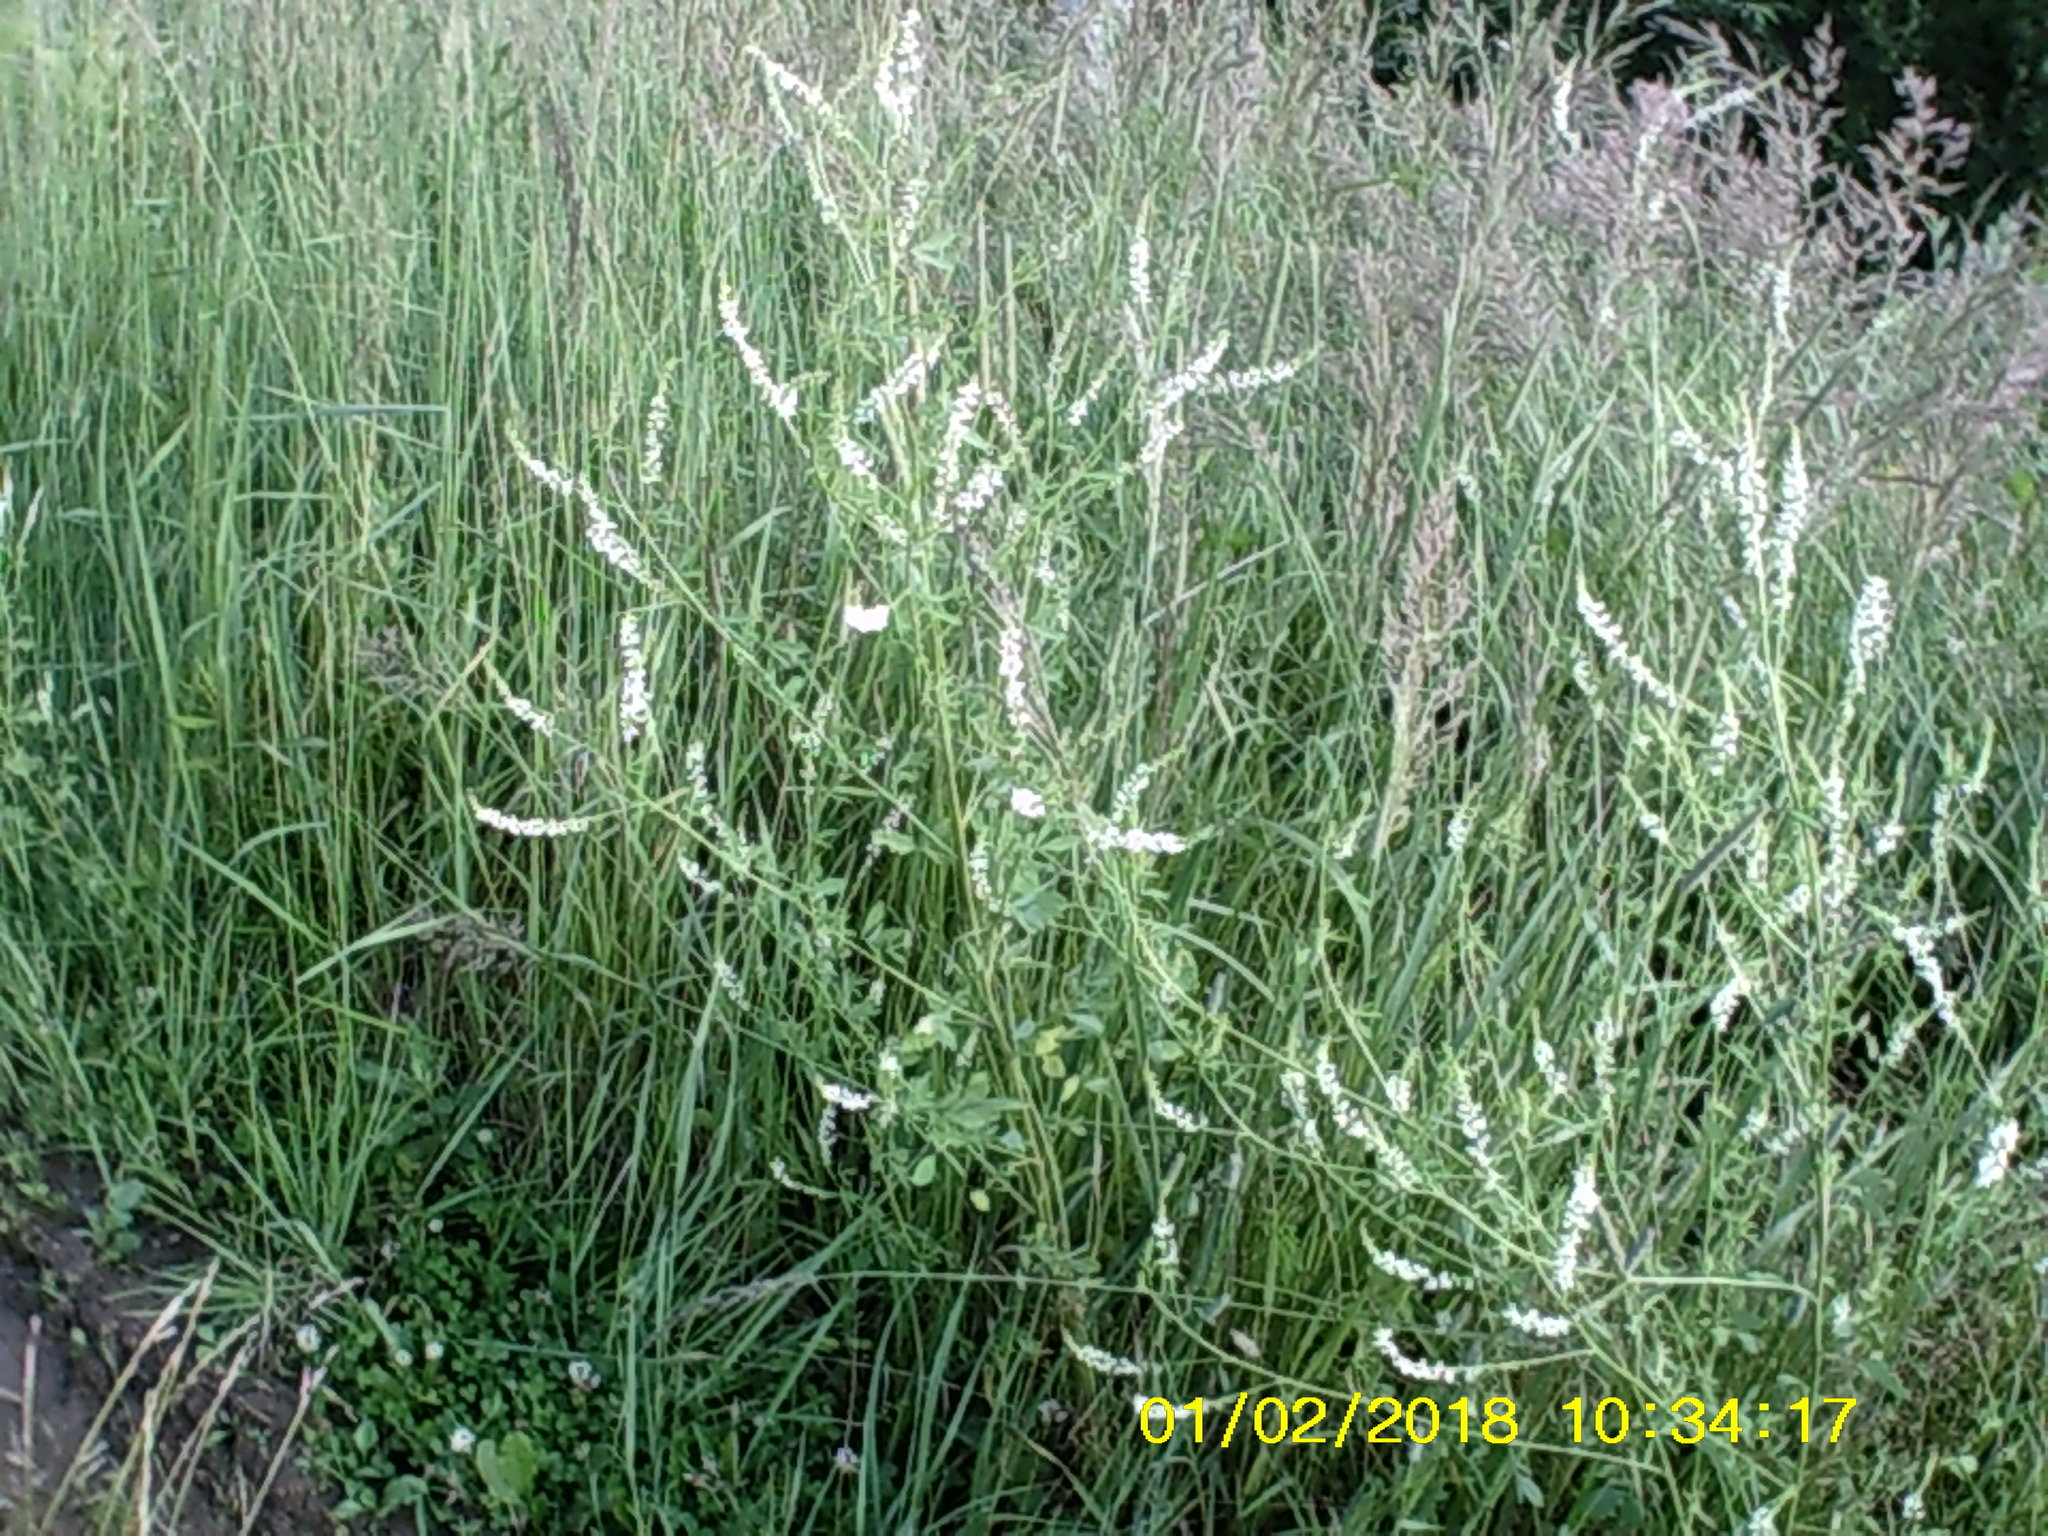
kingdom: Plantae
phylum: Tracheophyta
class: Magnoliopsida
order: Fabales
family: Fabaceae
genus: Melilotus
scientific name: Melilotus albus
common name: White melilot
